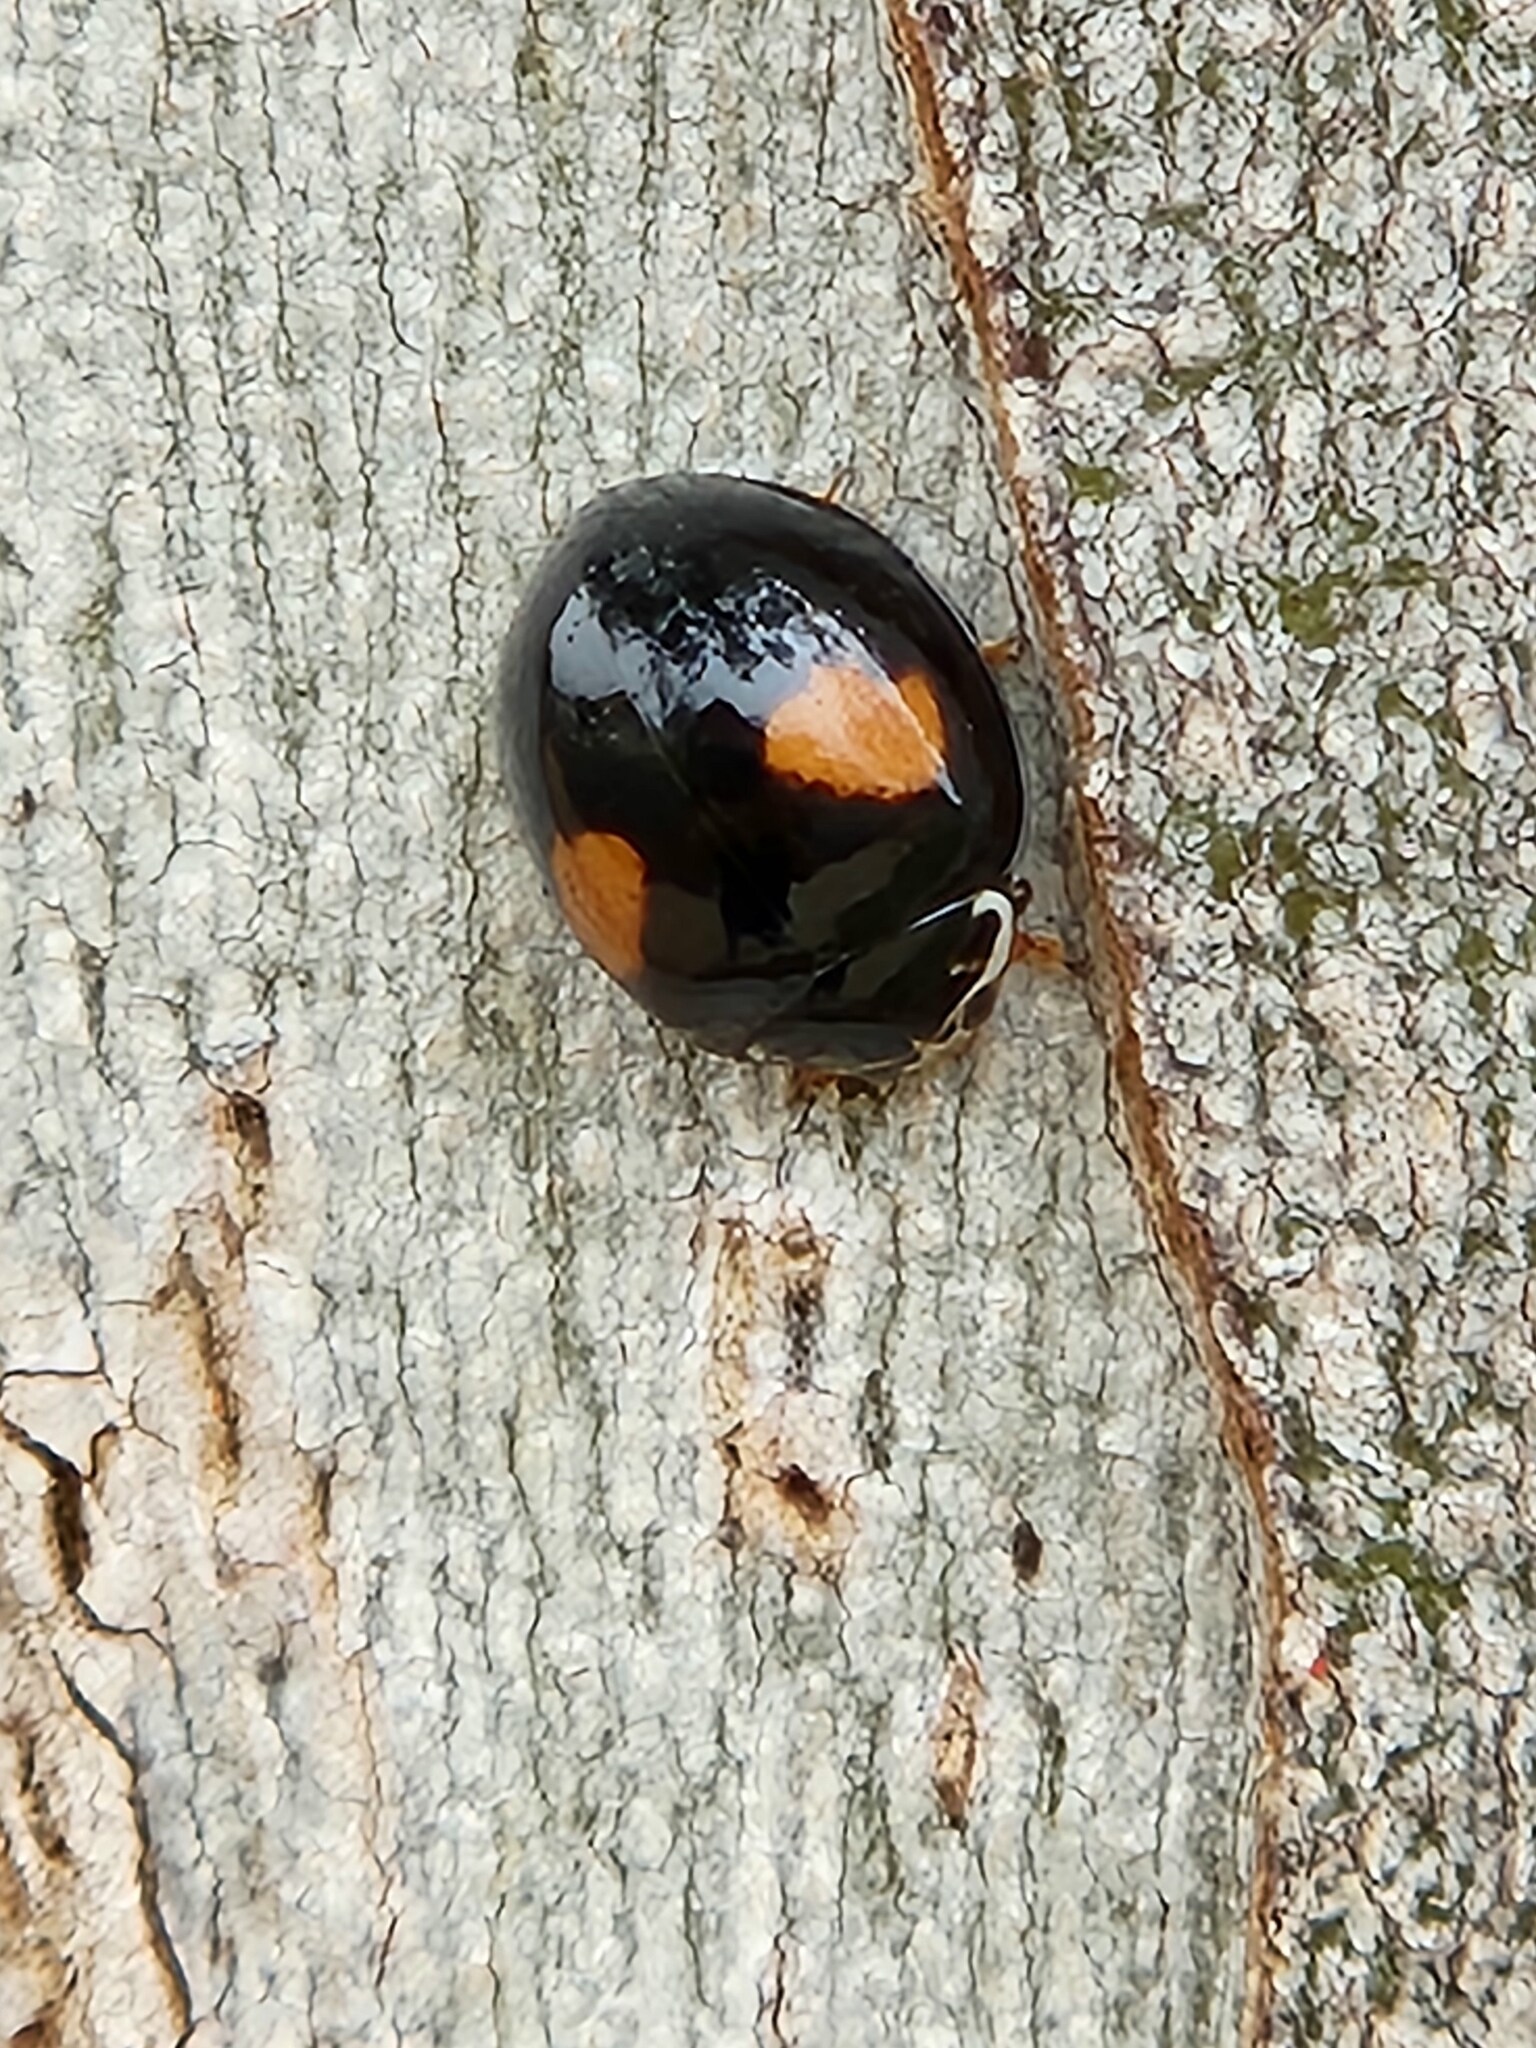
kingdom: Animalia
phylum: Arthropoda
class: Insecta
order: Coleoptera
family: Coccinellidae
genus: Olla
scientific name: Olla v-nigrum
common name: Ashy gray lady beetle
